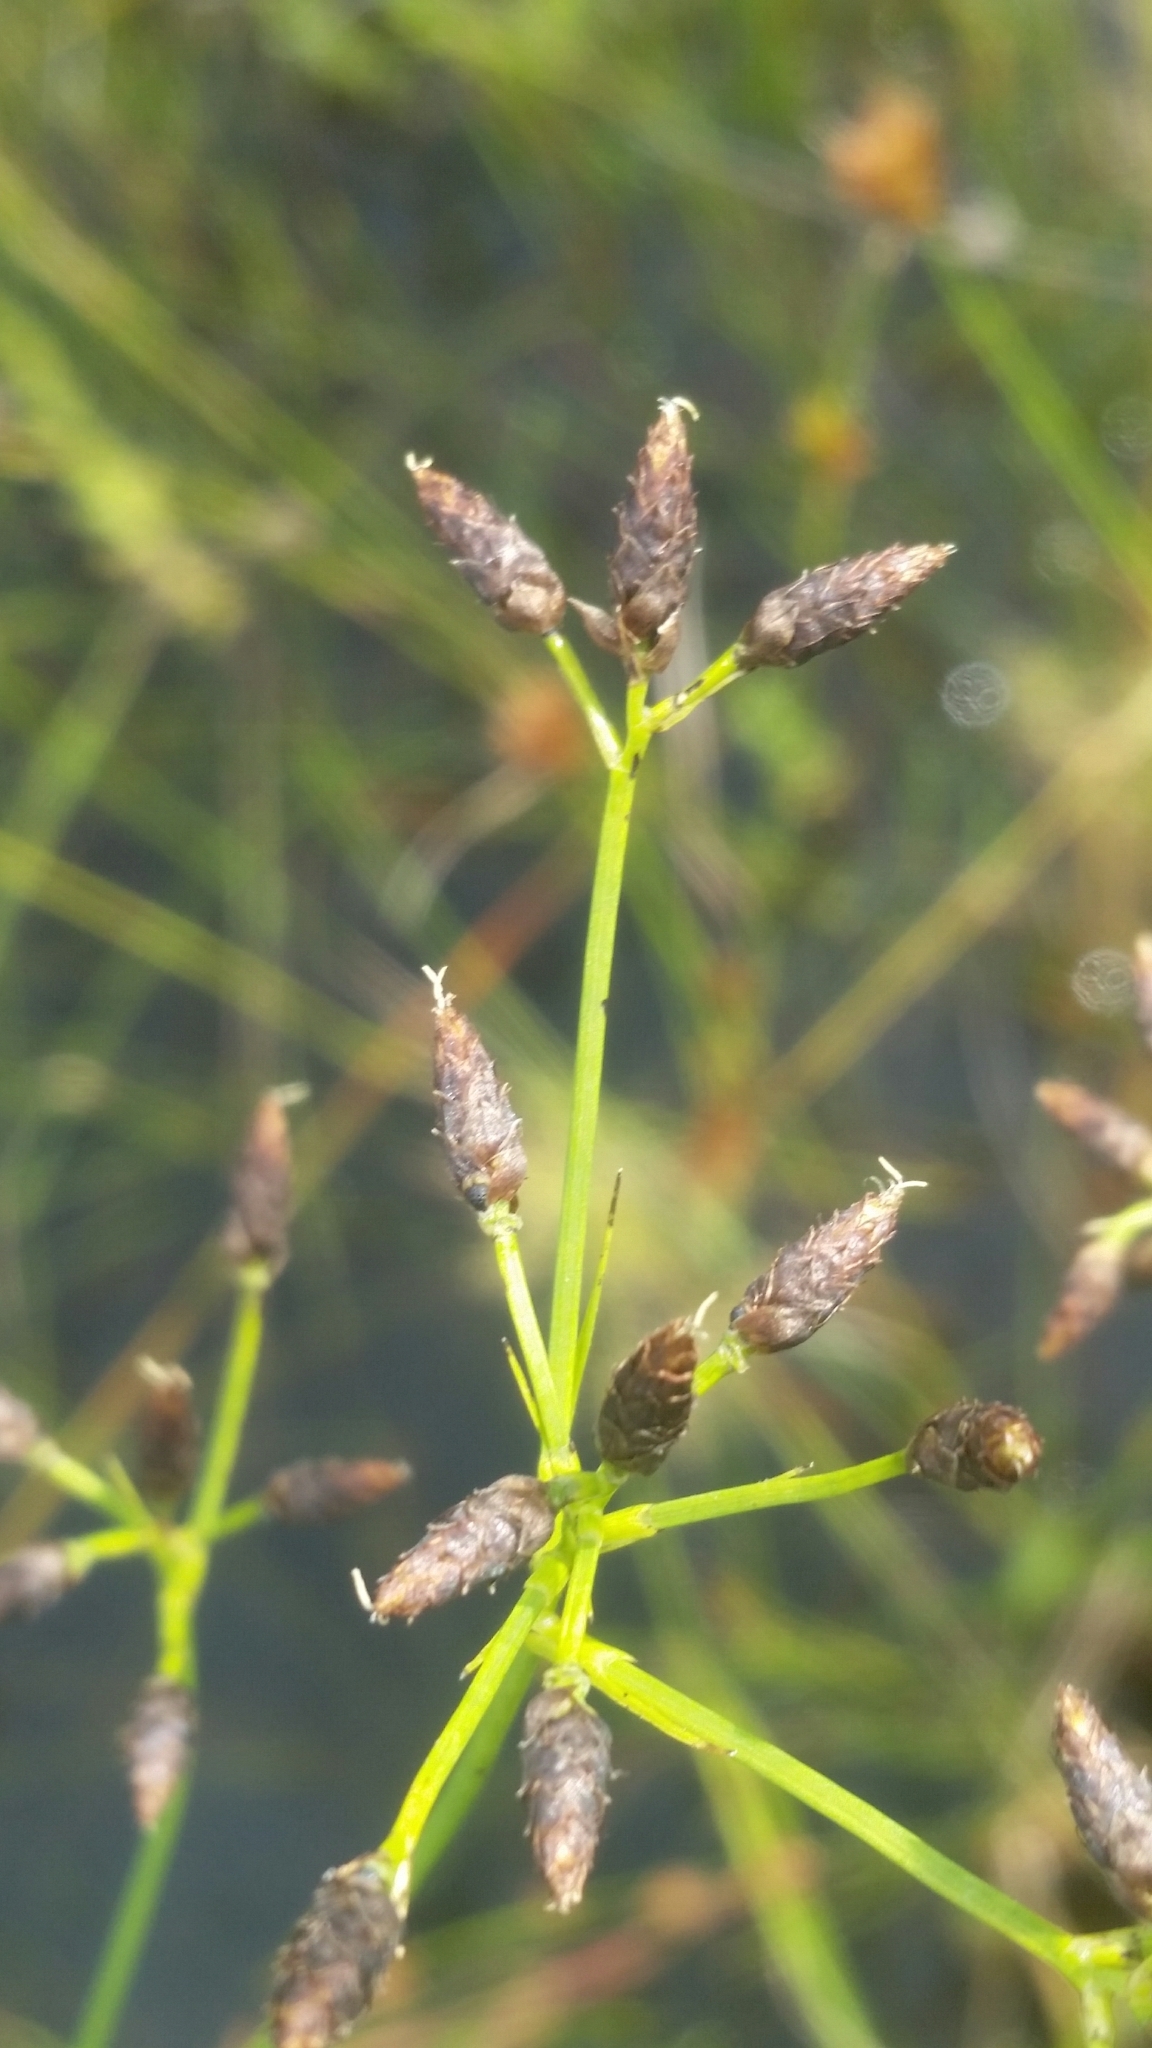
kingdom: Plantae
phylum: Tracheophyta
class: Liliopsida
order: Poales
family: Cyperaceae
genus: Rhynchospora
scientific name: Rhynchospora nitens
